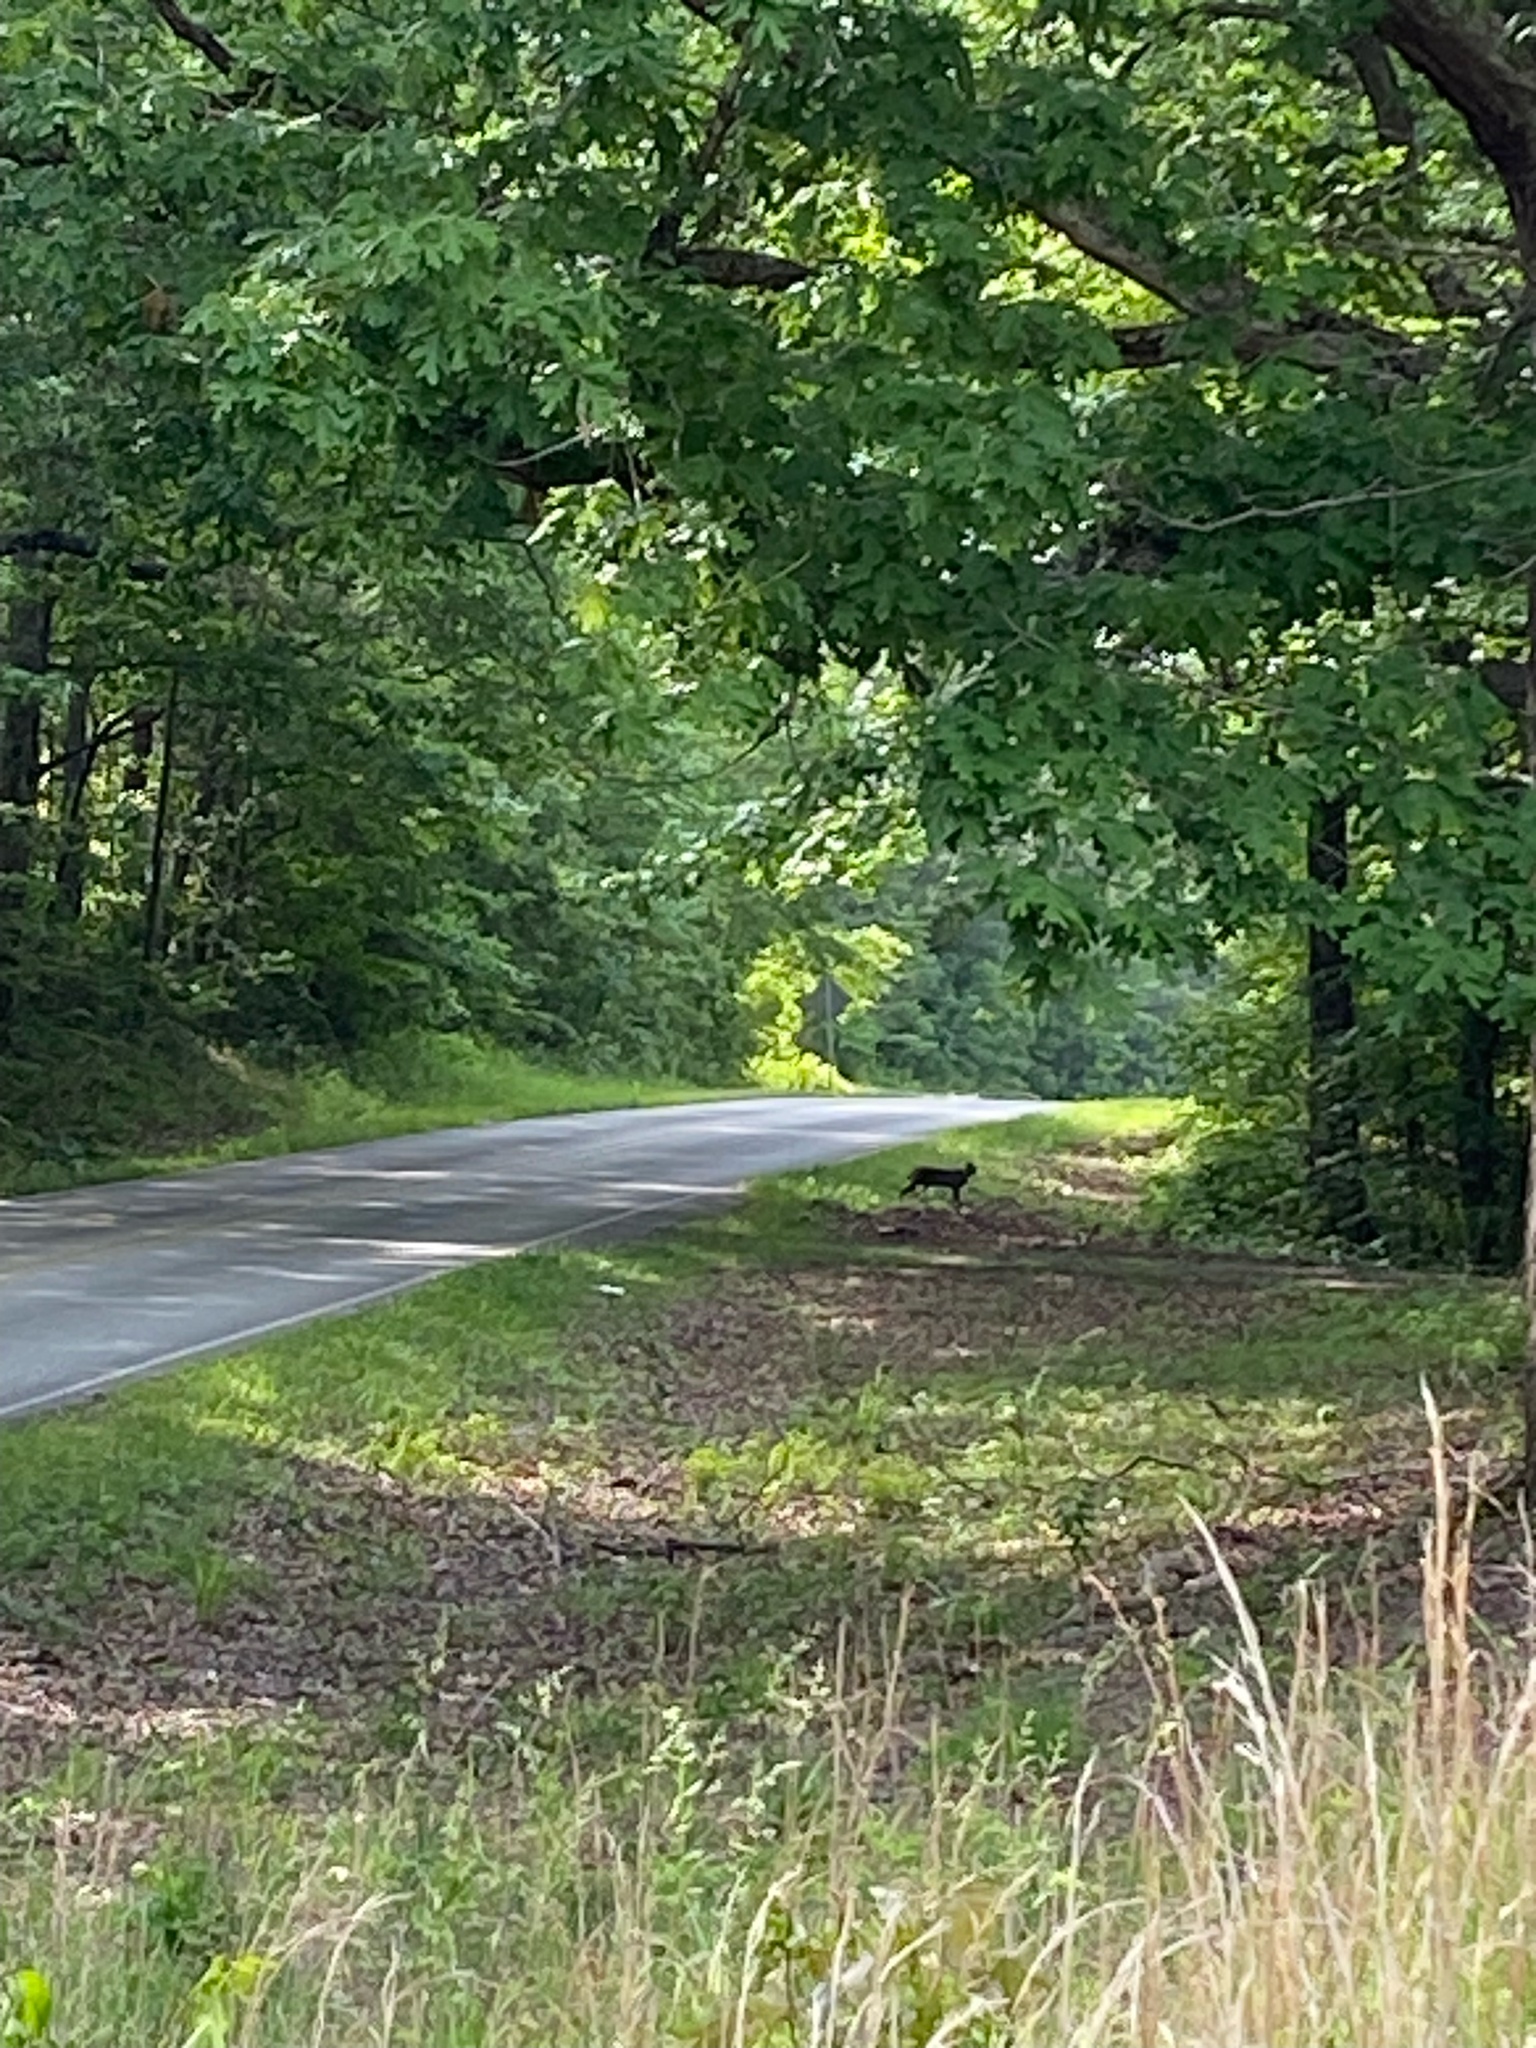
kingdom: Animalia
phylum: Chordata
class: Mammalia
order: Carnivora
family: Felidae
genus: Lynx
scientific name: Lynx rufus
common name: Bobcat
